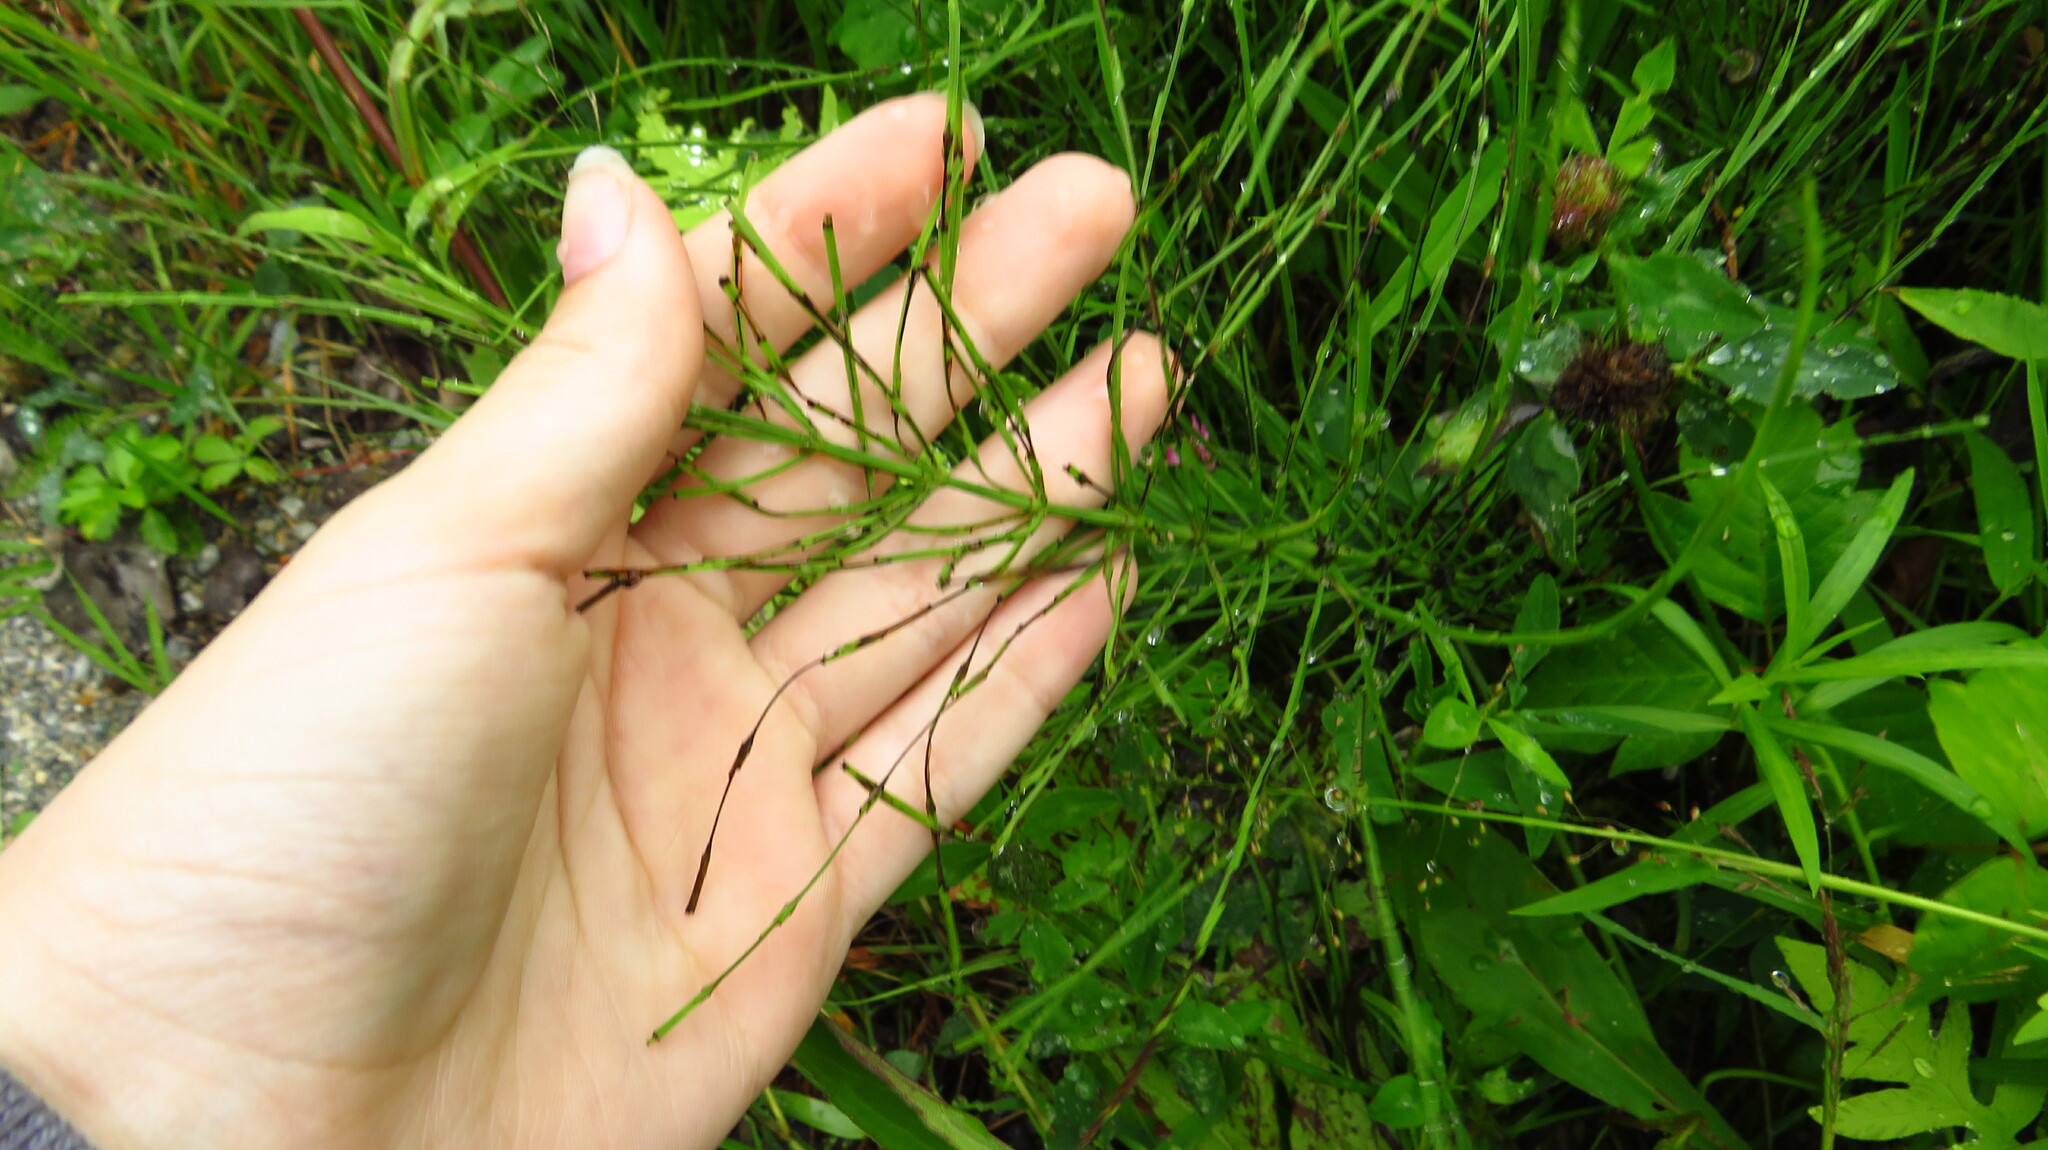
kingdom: Plantae
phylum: Tracheophyta
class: Polypodiopsida
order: Equisetales
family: Equisetaceae
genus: Equisetum
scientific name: Equisetum arvense
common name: Field horsetail
